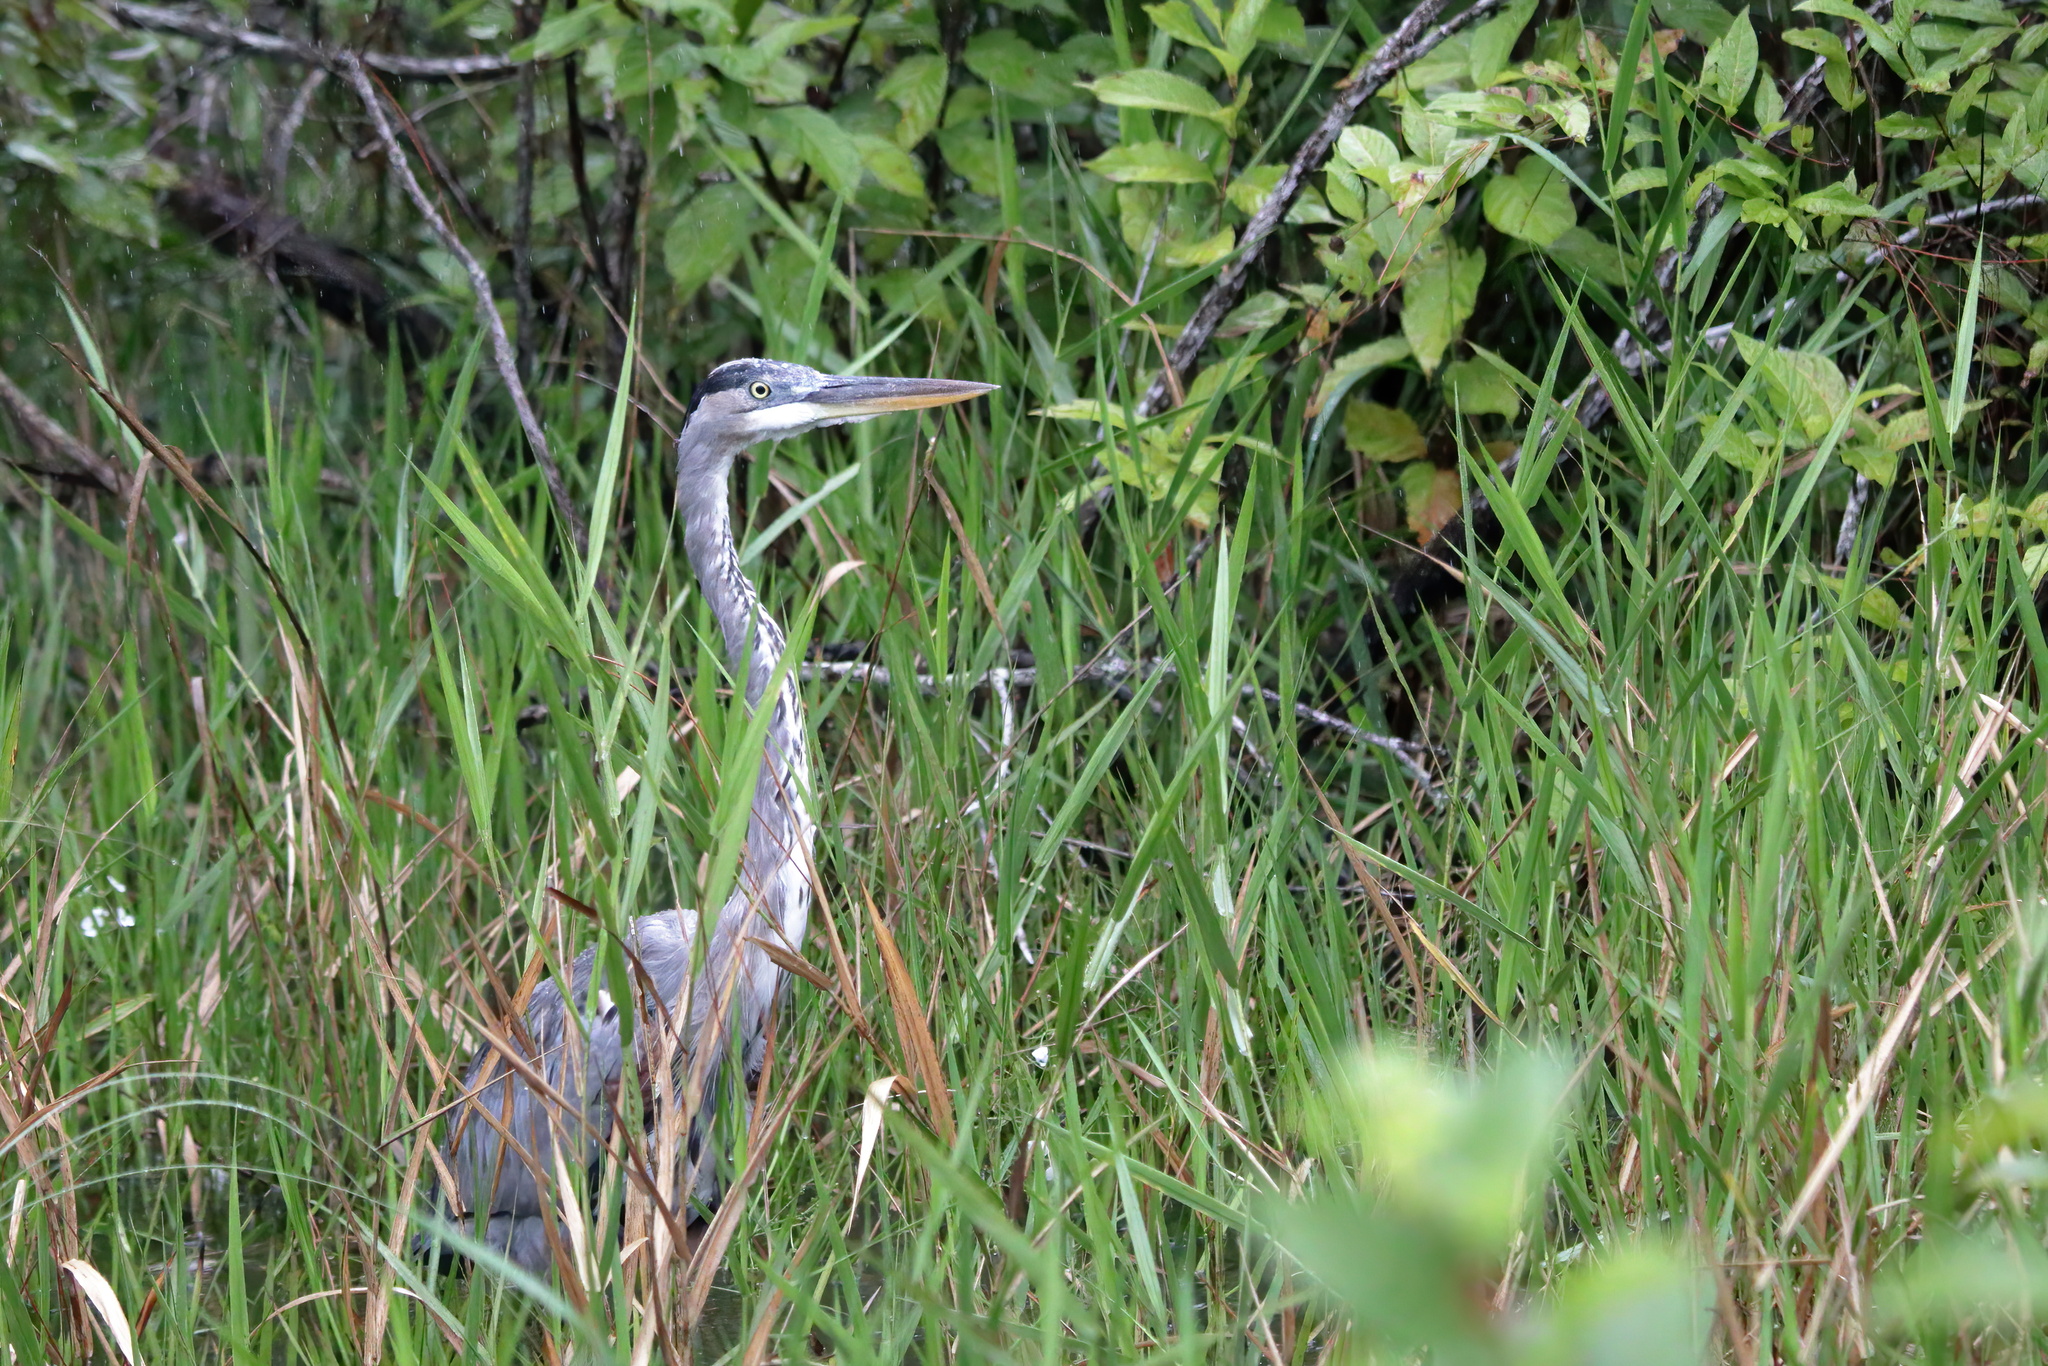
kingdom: Animalia
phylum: Chordata
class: Aves
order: Pelecaniformes
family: Ardeidae
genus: Ardea
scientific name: Ardea herodias
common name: Great blue heron
